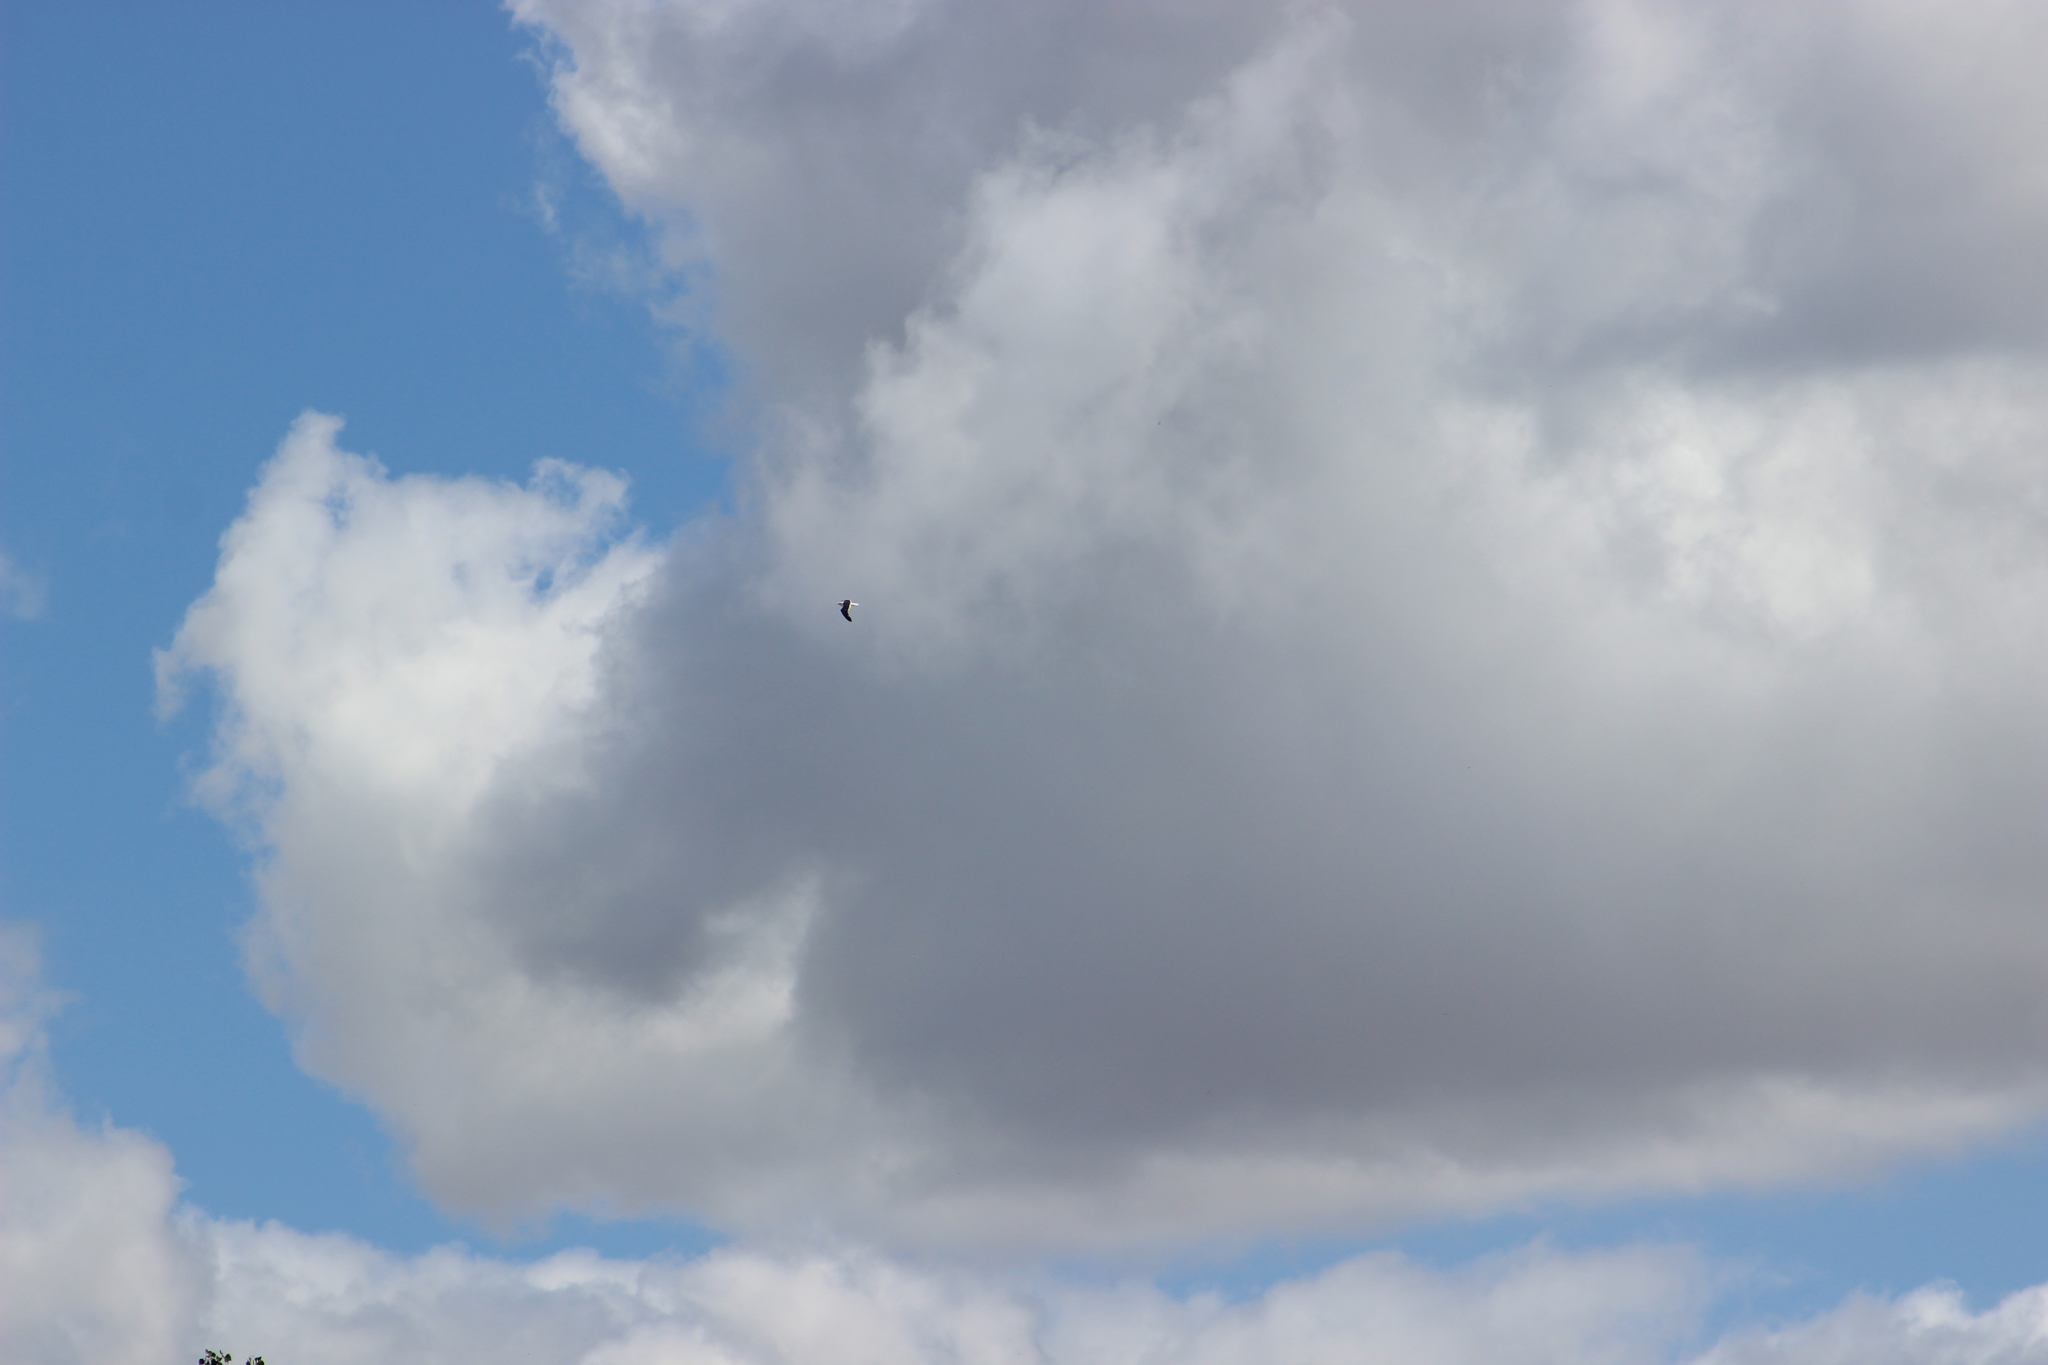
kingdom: Animalia
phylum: Chordata
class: Aves
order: Charadriiformes
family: Laridae
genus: Larus
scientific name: Larus dominicanus
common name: Kelp gull
